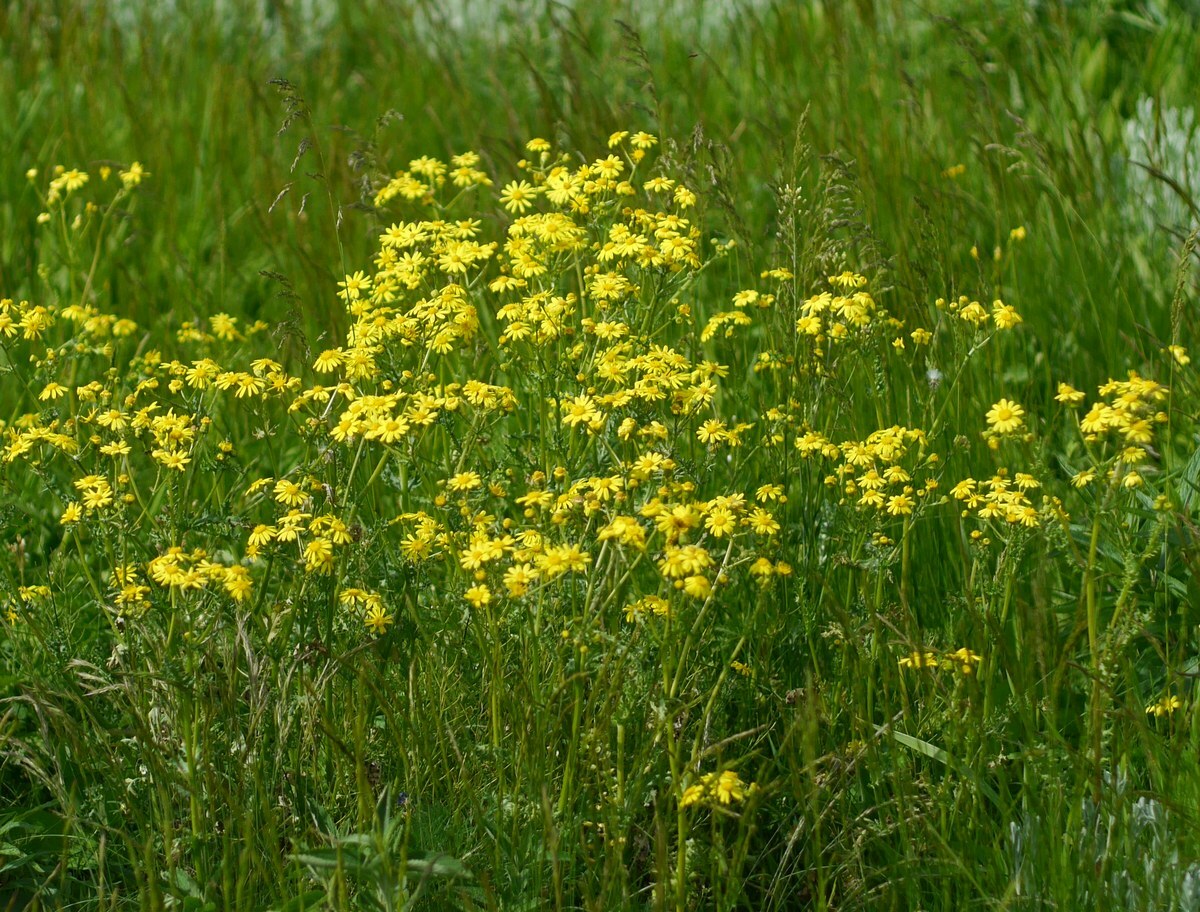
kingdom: Plantae
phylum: Tracheophyta
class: Magnoliopsida
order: Asterales
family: Asteraceae
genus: Senecio
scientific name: Senecio vernalis
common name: Eastern groundsel
